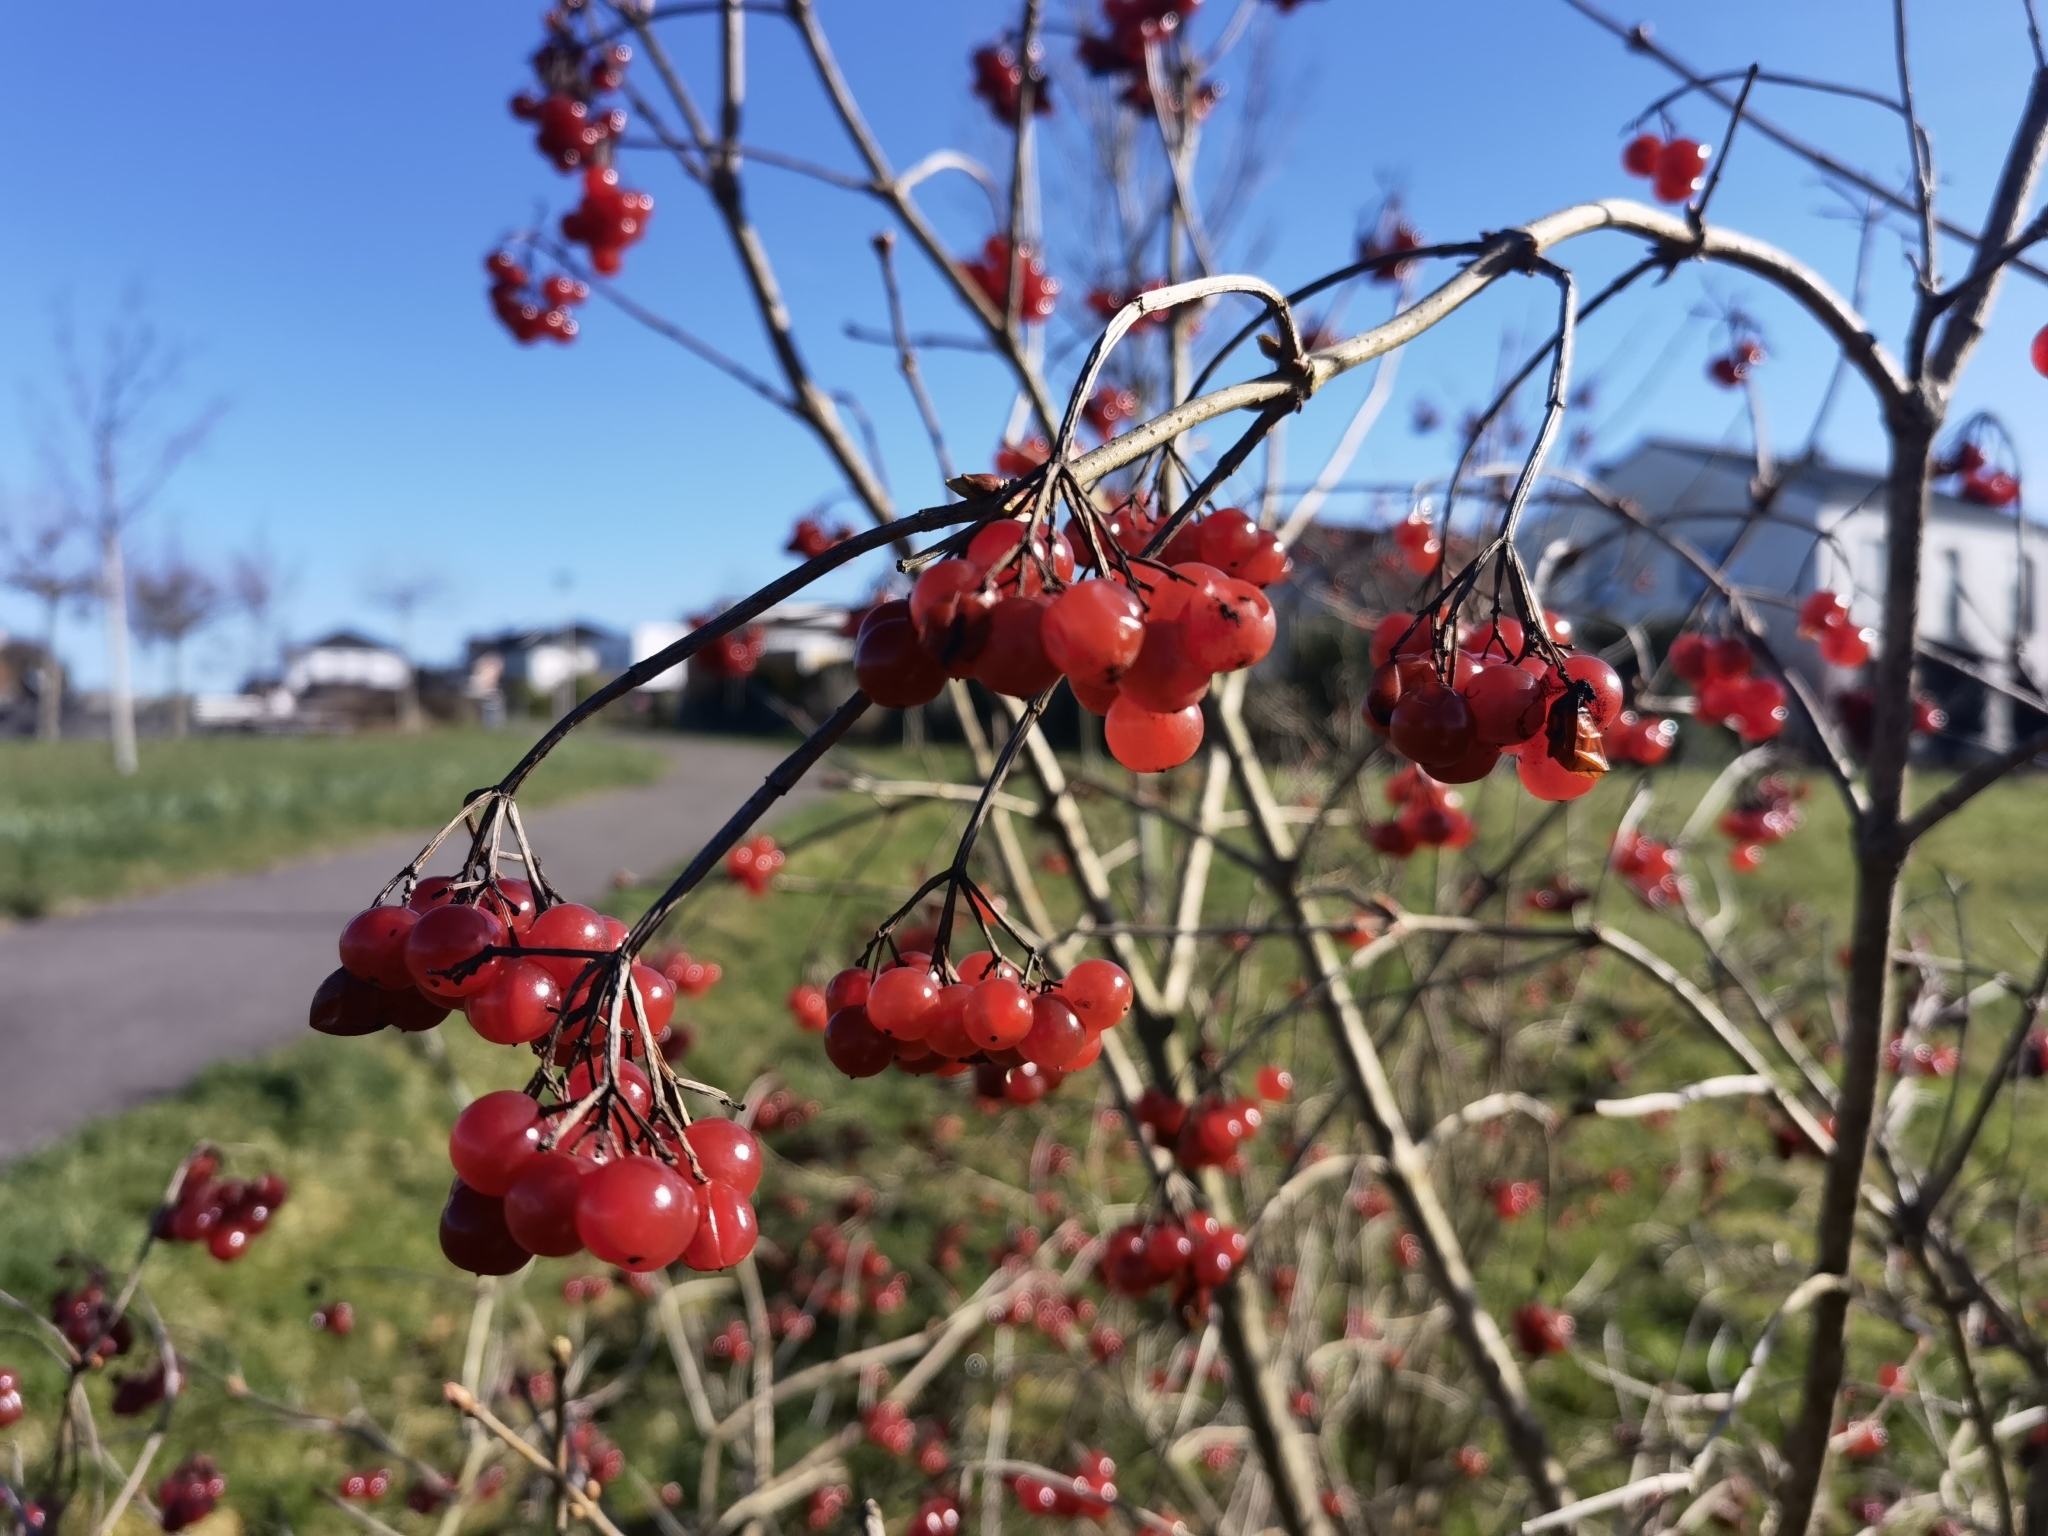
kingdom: Plantae
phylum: Tracheophyta
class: Magnoliopsida
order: Dipsacales
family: Viburnaceae
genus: Viburnum
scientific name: Viburnum opulus
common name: Guelder-rose
